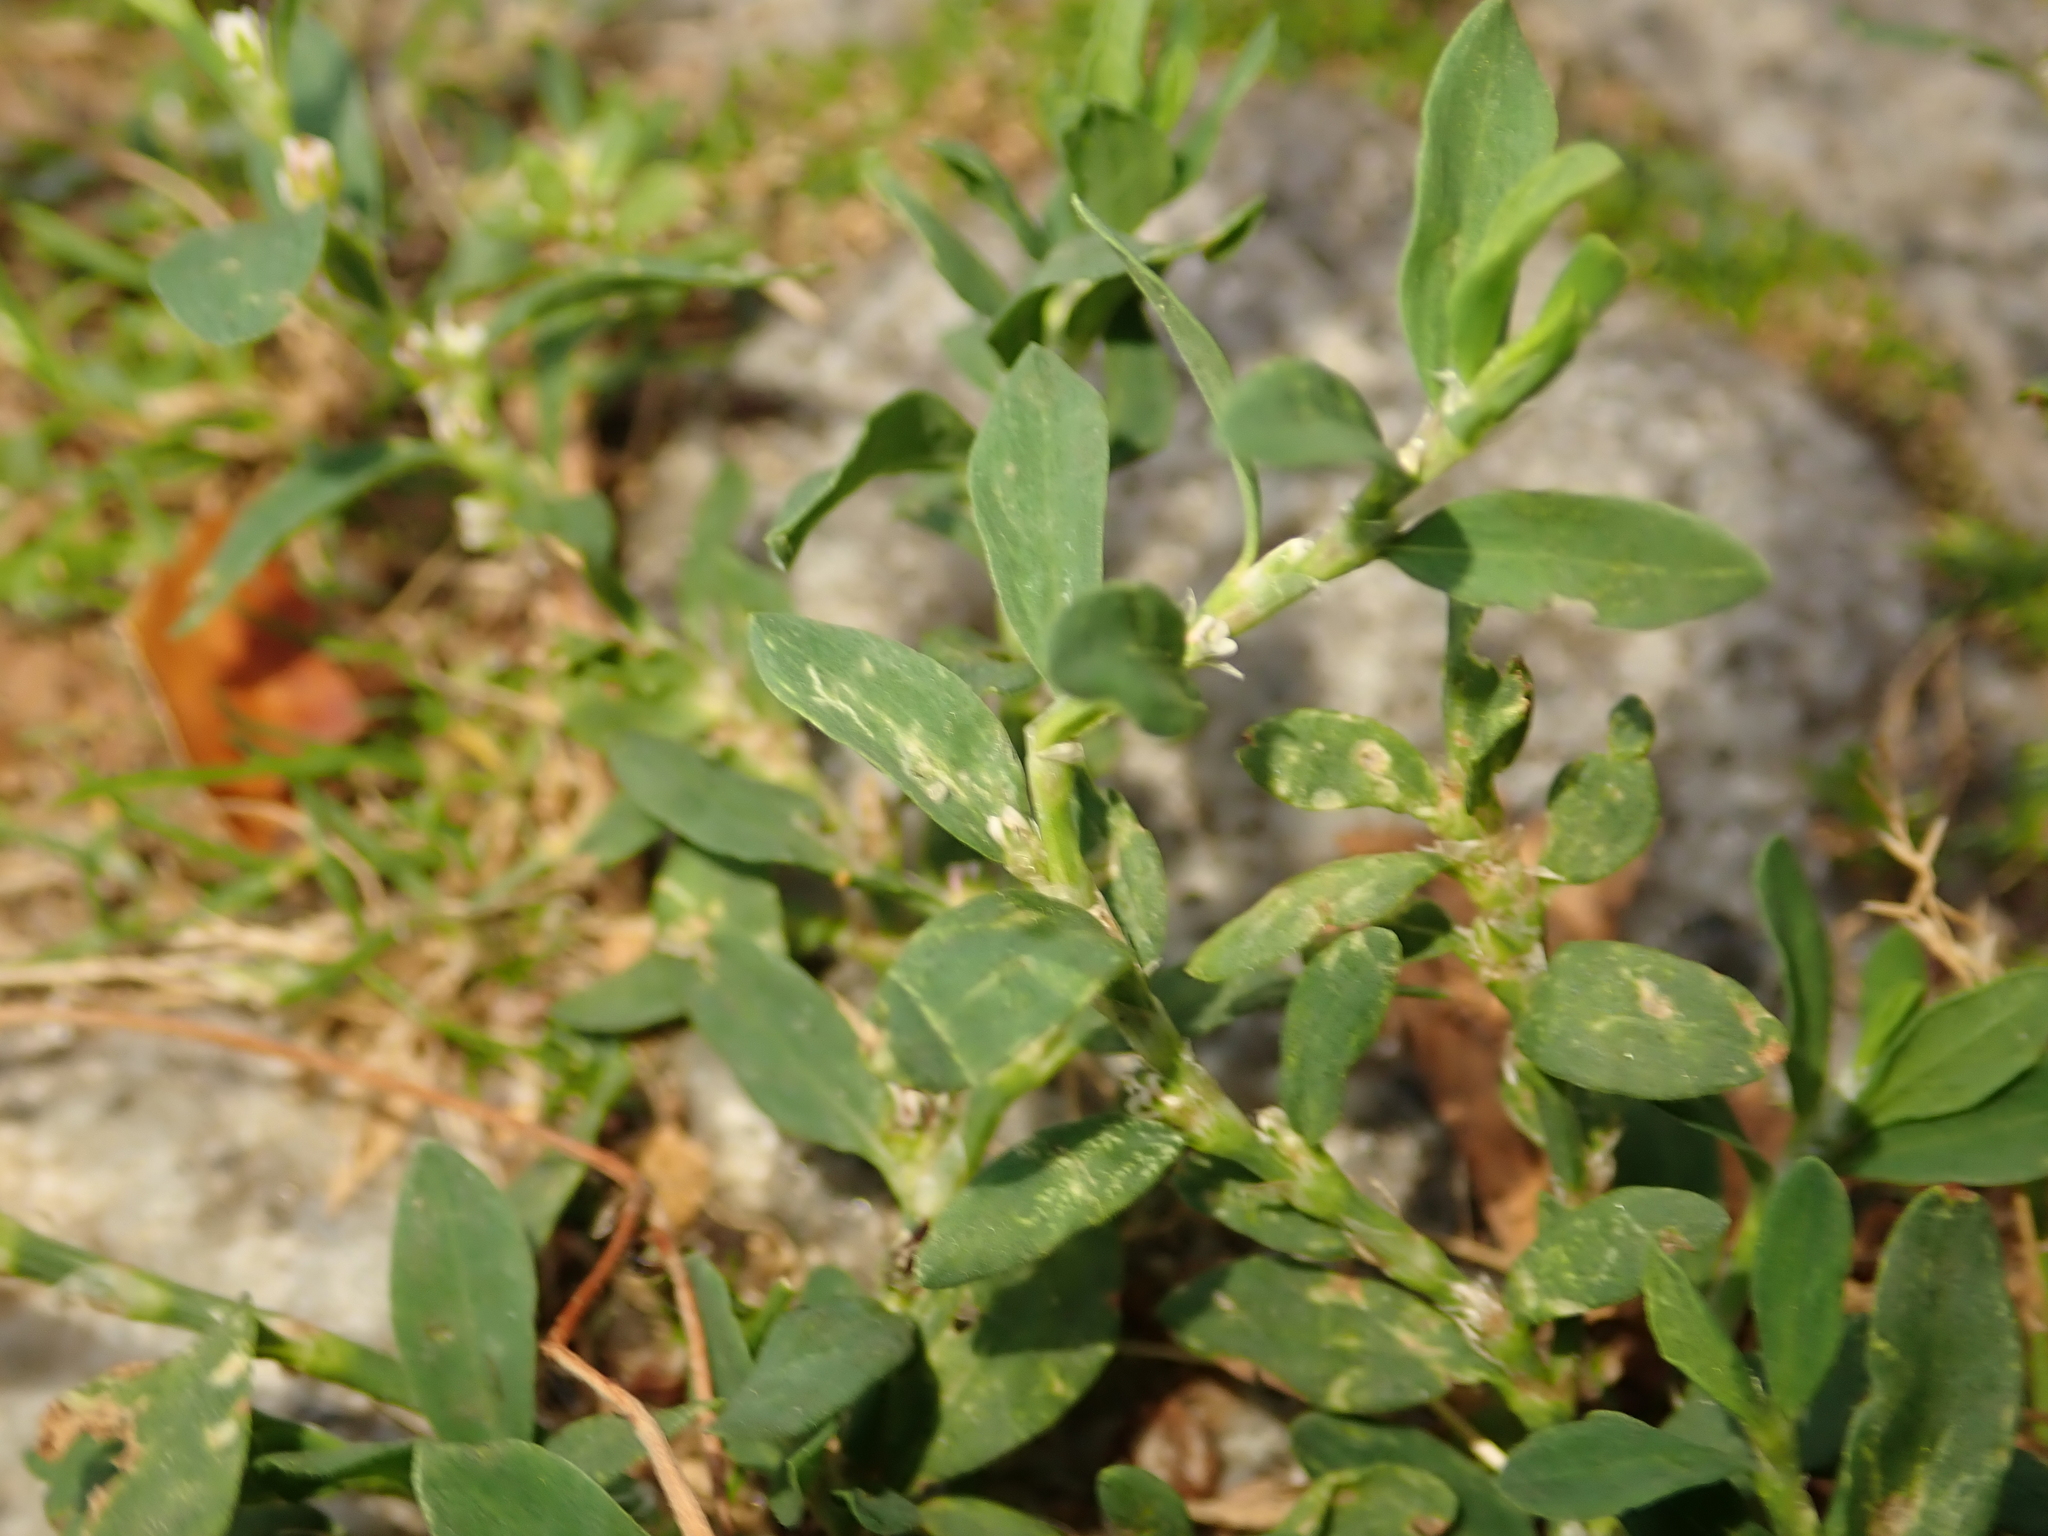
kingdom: Plantae
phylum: Tracheophyta
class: Magnoliopsida
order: Caryophyllales
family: Polygonaceae
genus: Polygonum
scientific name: Polygonum aviculare
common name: Prostrate knotweed
